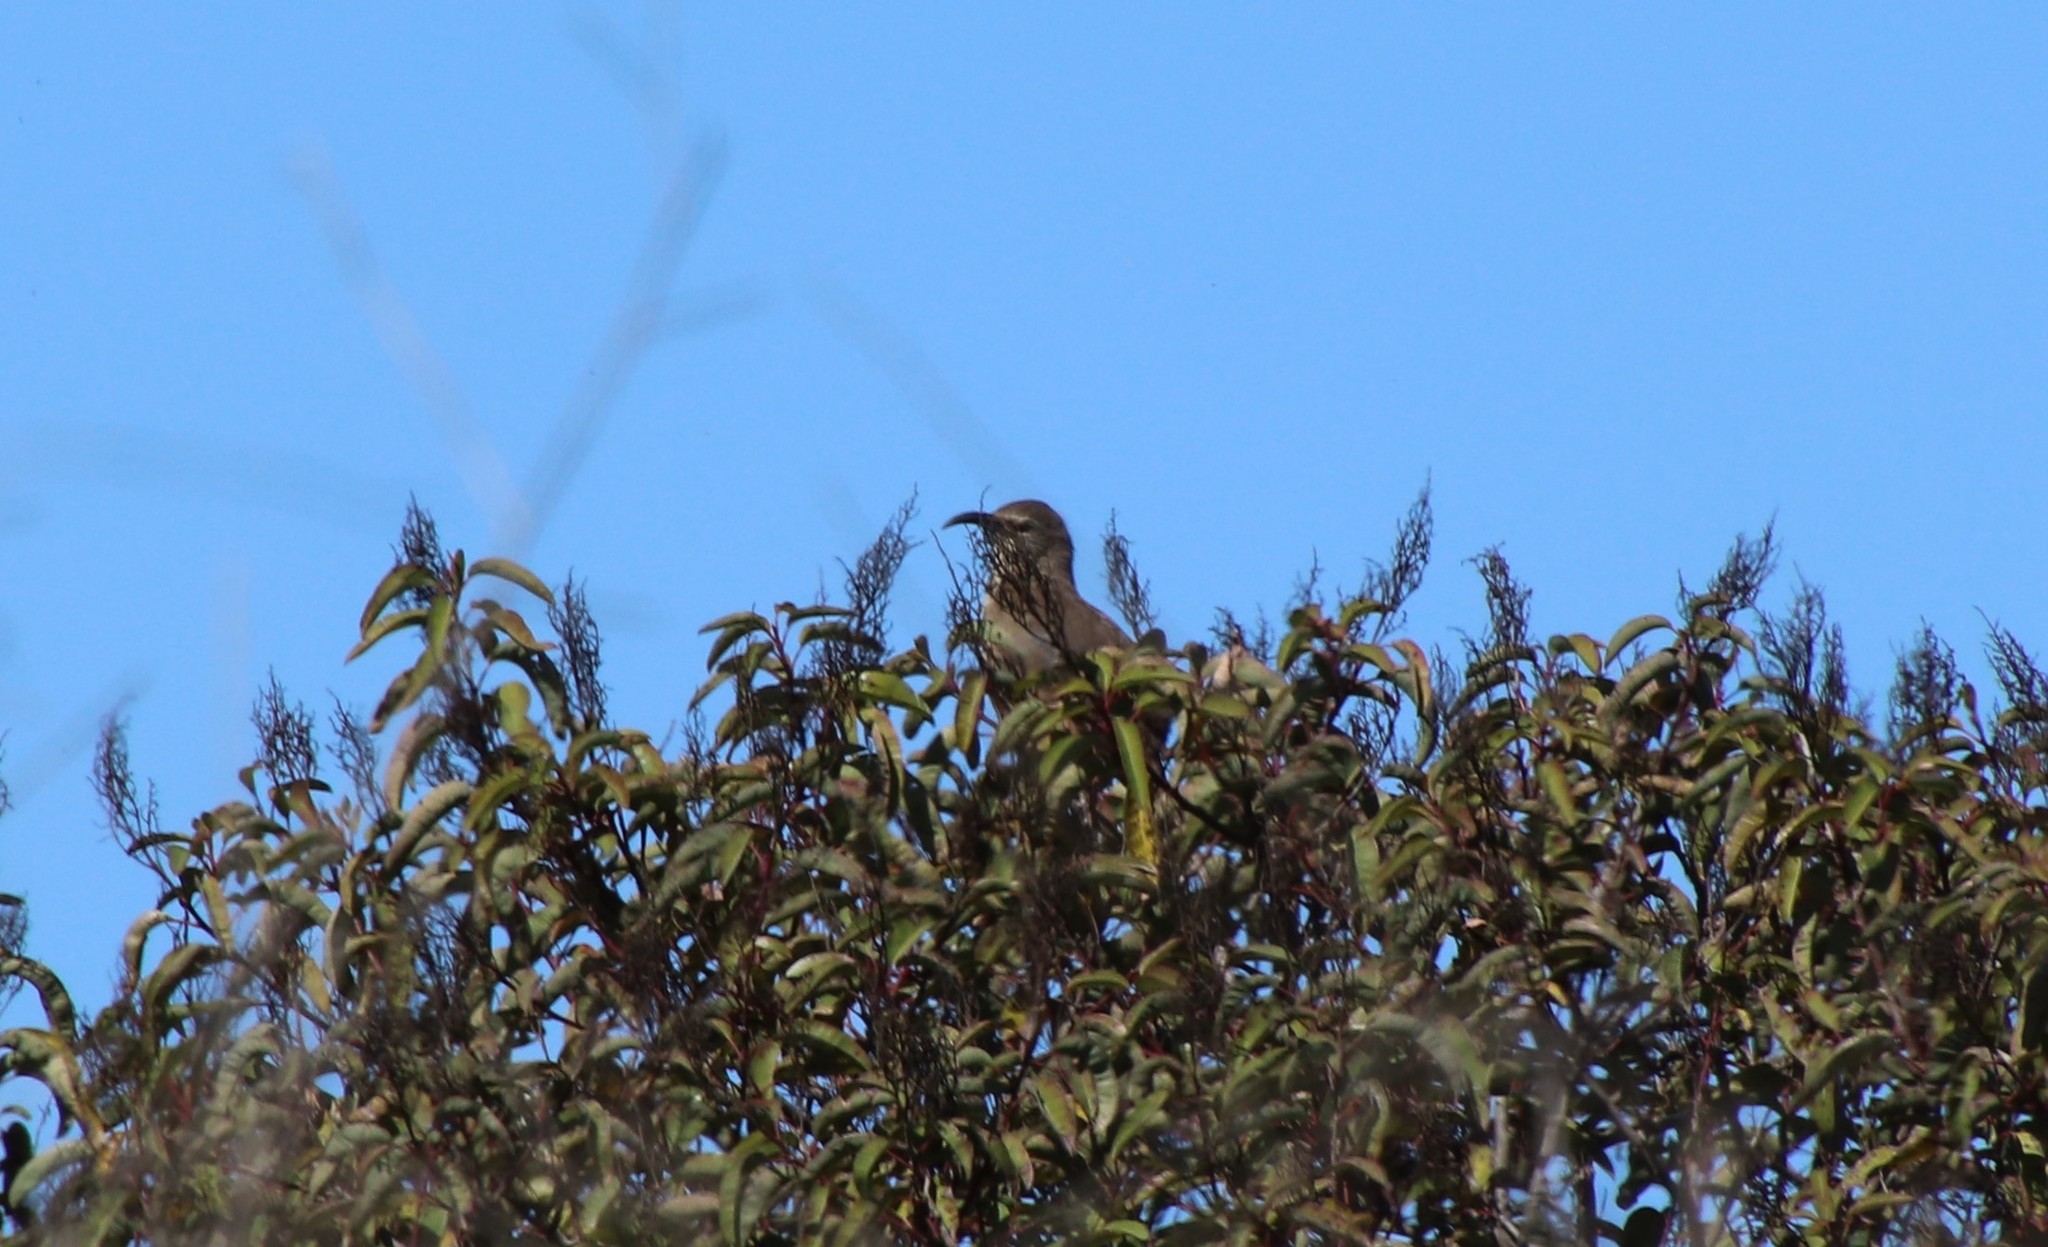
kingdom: Animalia
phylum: Chordata
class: Aves
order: Passeriformes
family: Mimidae
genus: Toxostoma
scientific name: Toxostoma redivivum
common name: California thrasher
